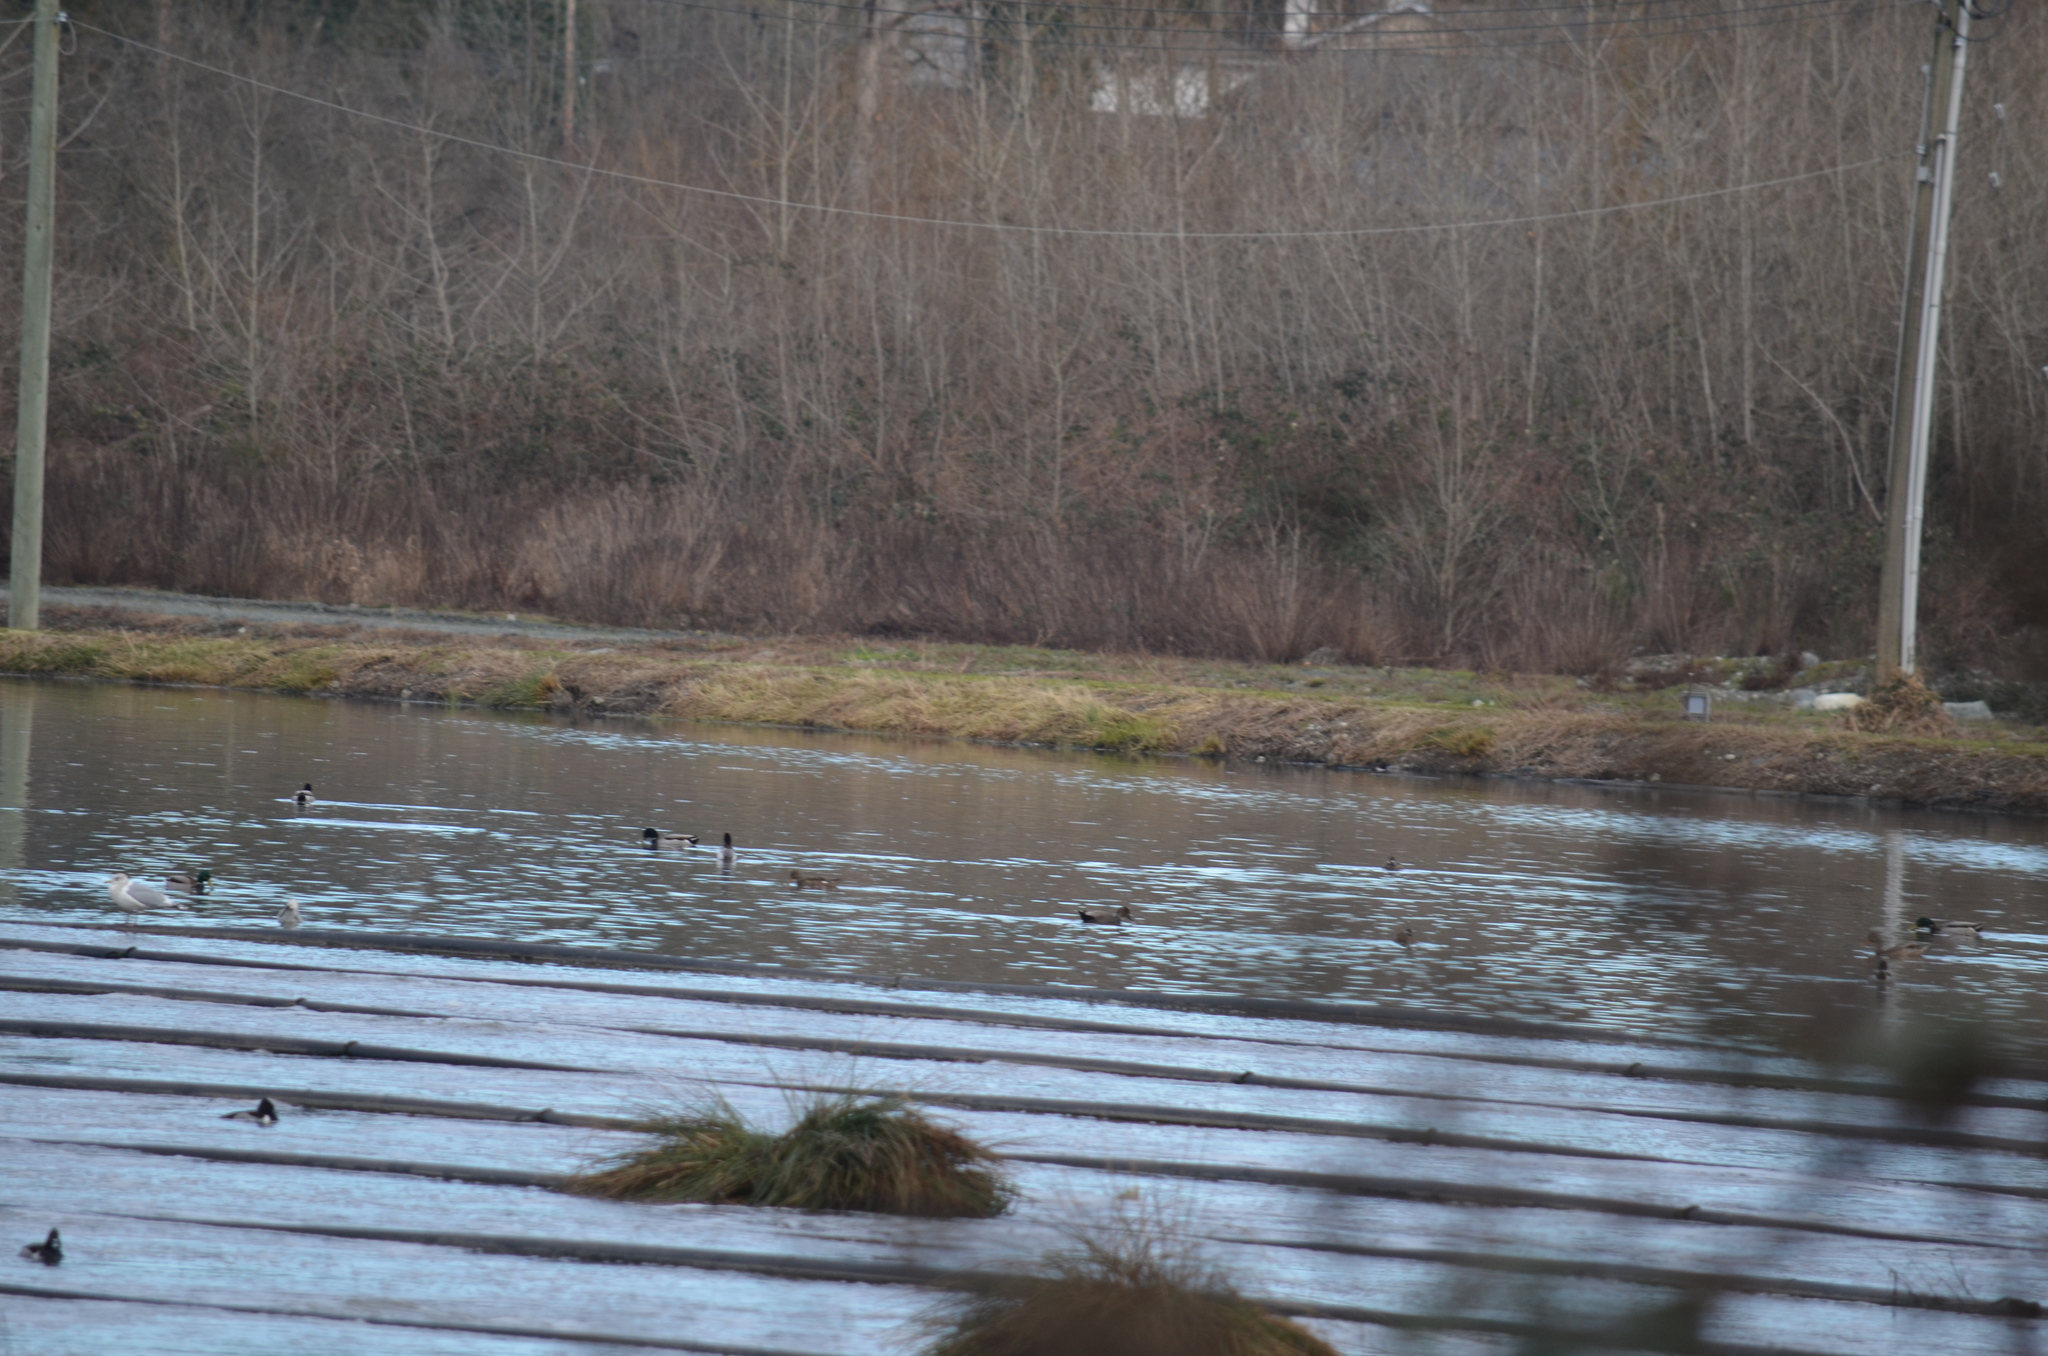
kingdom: Animalia
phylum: Chordata
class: Aves
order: Anseriformes
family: Anatidae
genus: Mareca
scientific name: Mareca strepera
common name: Gadwall
